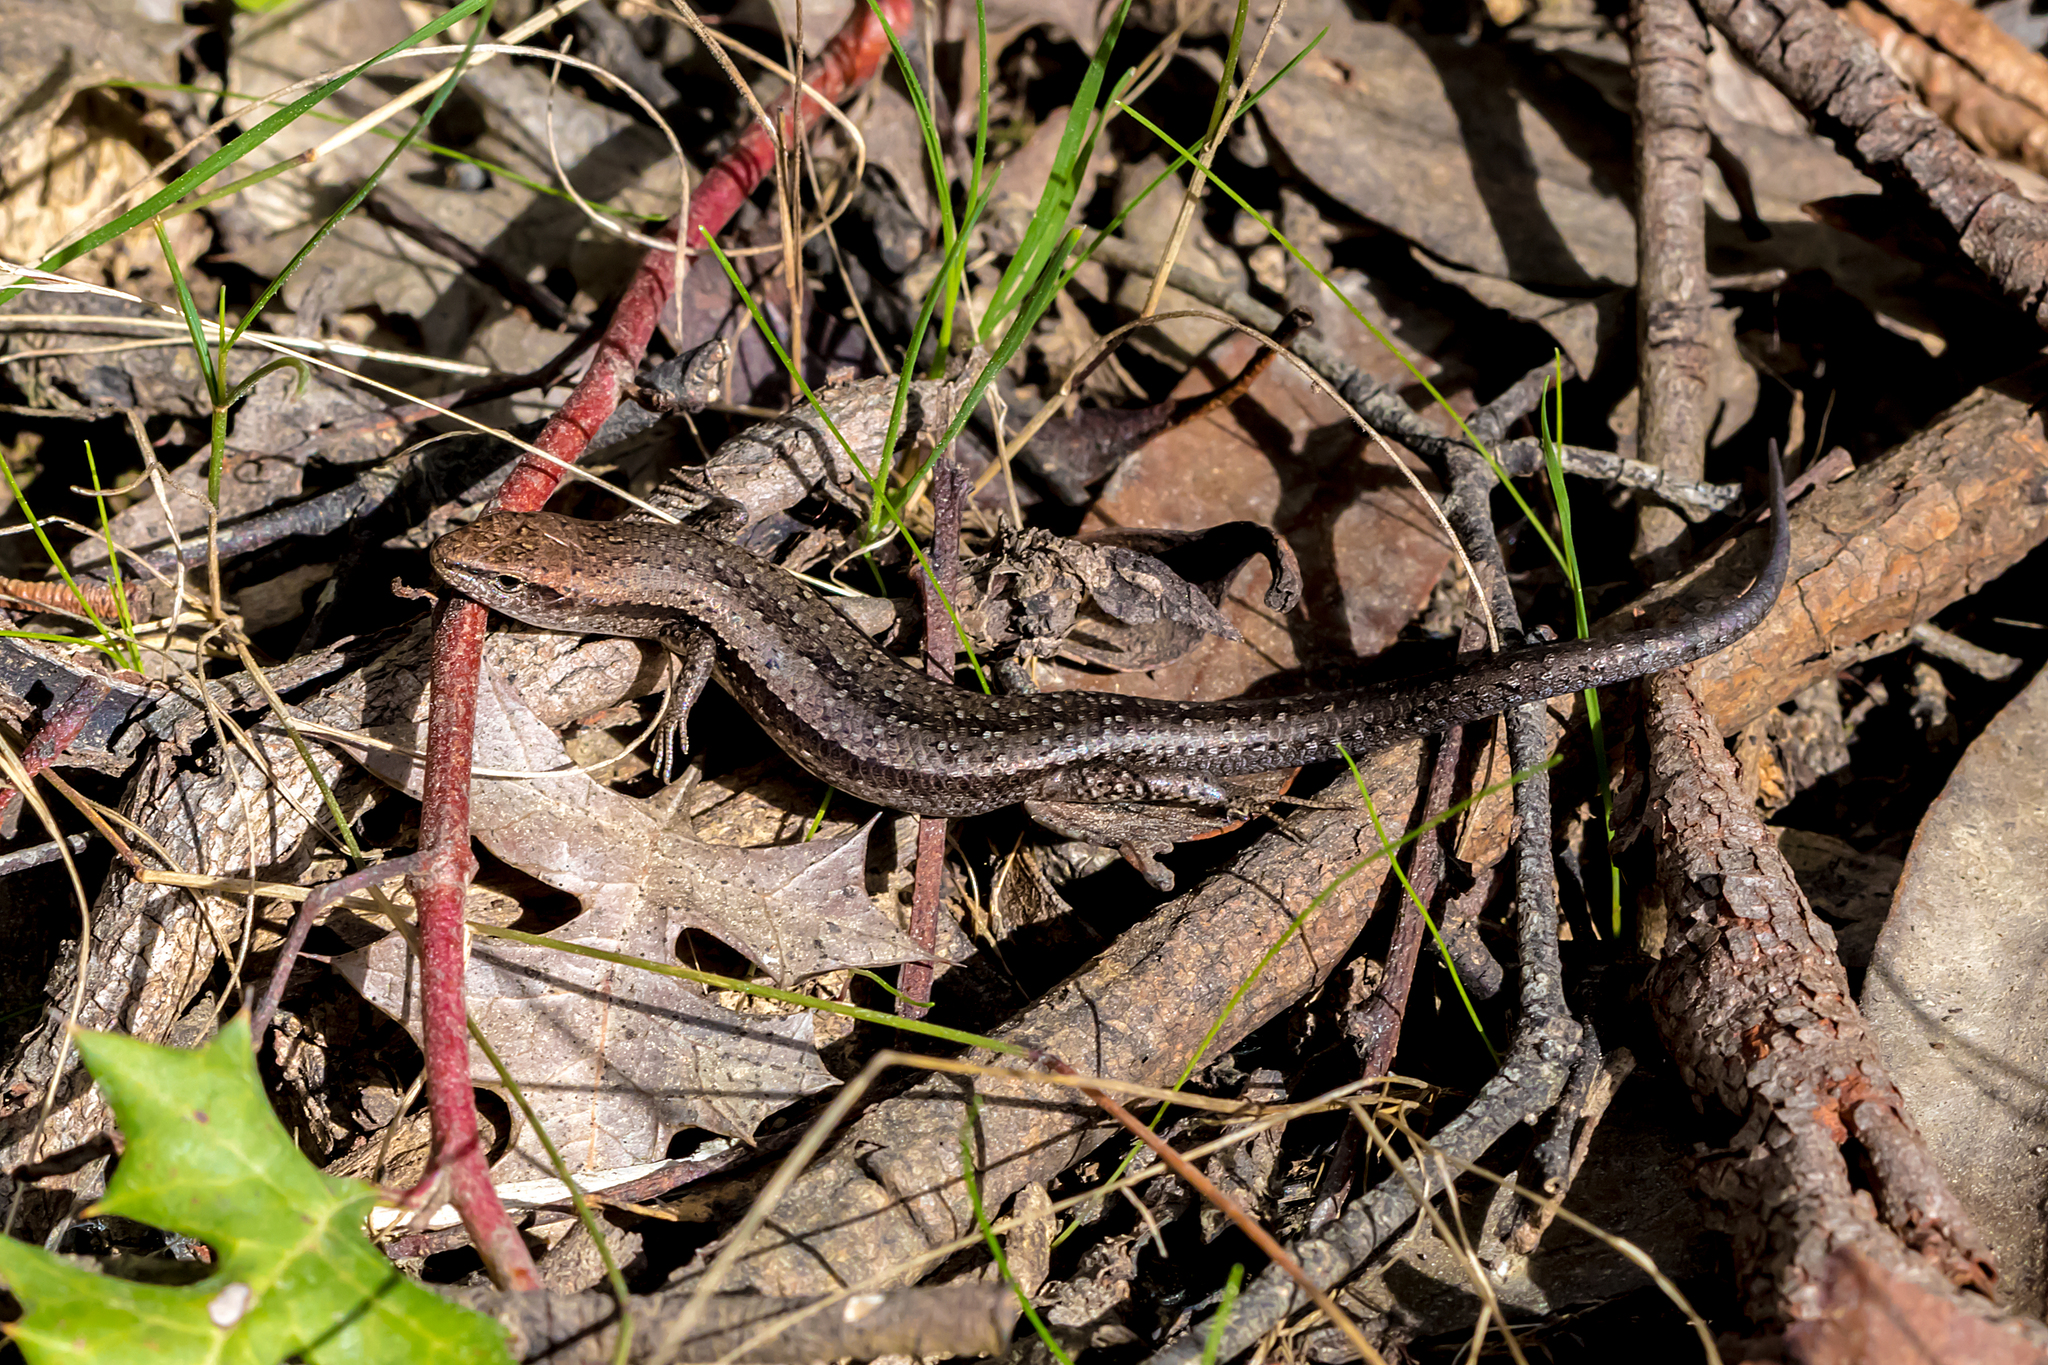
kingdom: Animalia
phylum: Chordata
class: Squamata
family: Scincidae
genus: Lampropholis
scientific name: Lampropholis guichenoti
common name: Garden skink
